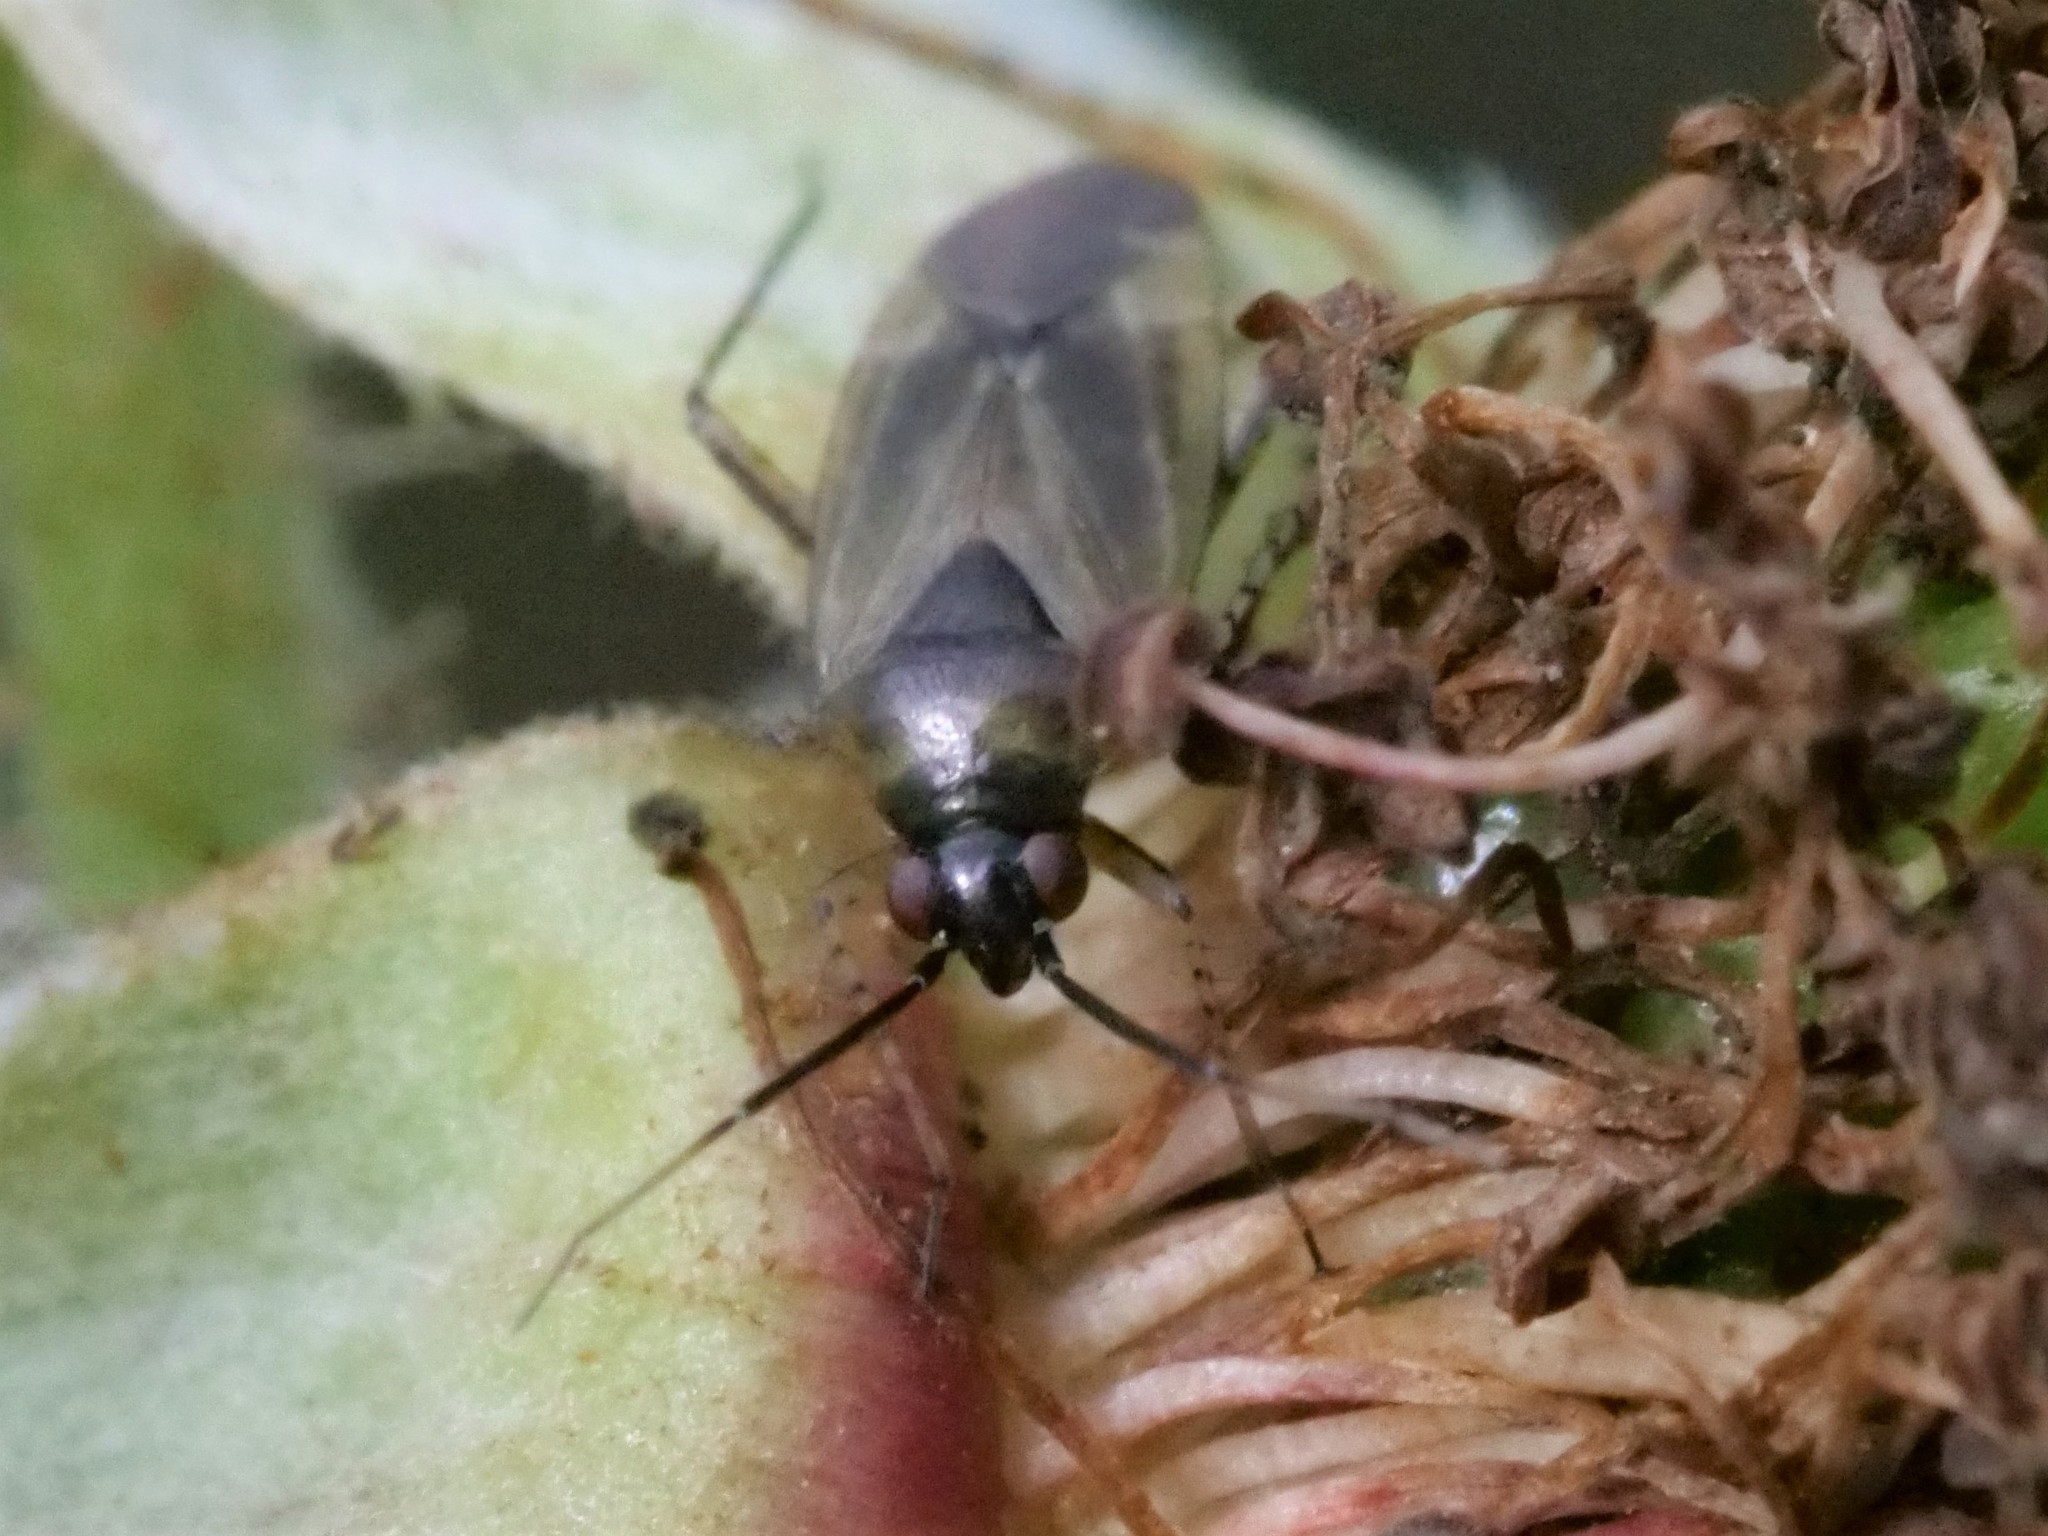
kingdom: Animalia
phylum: Arthropoda
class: Insecta
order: Hemiptera
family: Miridae
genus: Plagiognathus
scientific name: Plagiognathus arbustorum
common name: Plant bug
